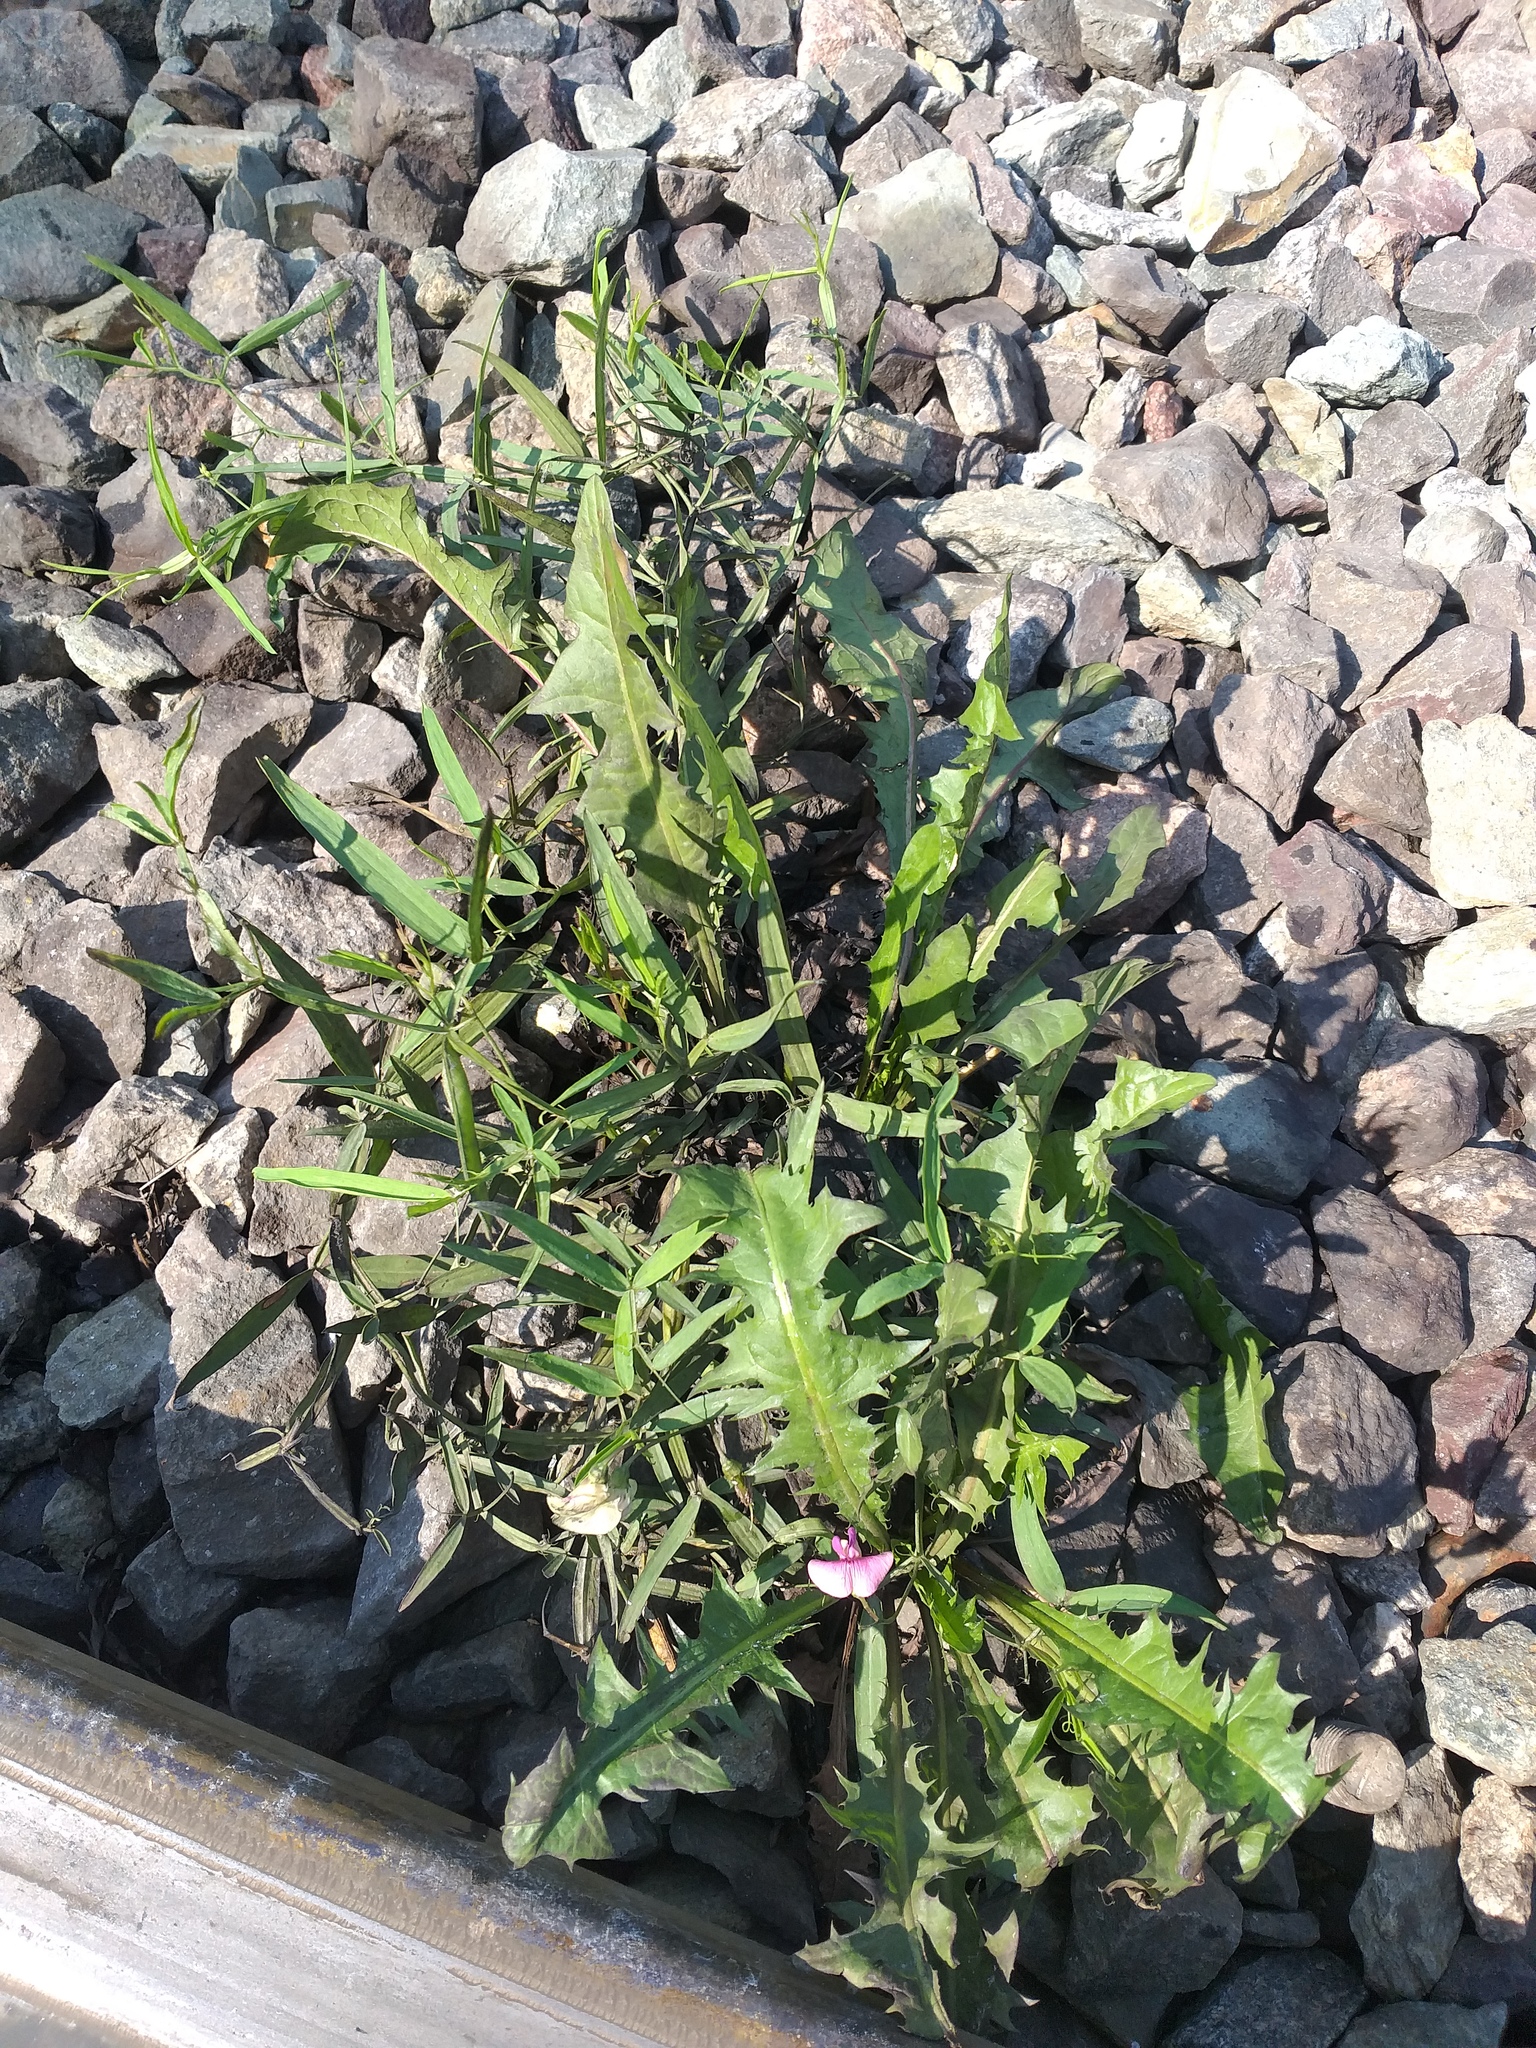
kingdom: Plantae
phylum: Tracheophyta
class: Magnoliopsida
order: Fabales
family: Fabaceae
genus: Lathyrus
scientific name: Lathyrus sylvestris
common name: Flat pea
